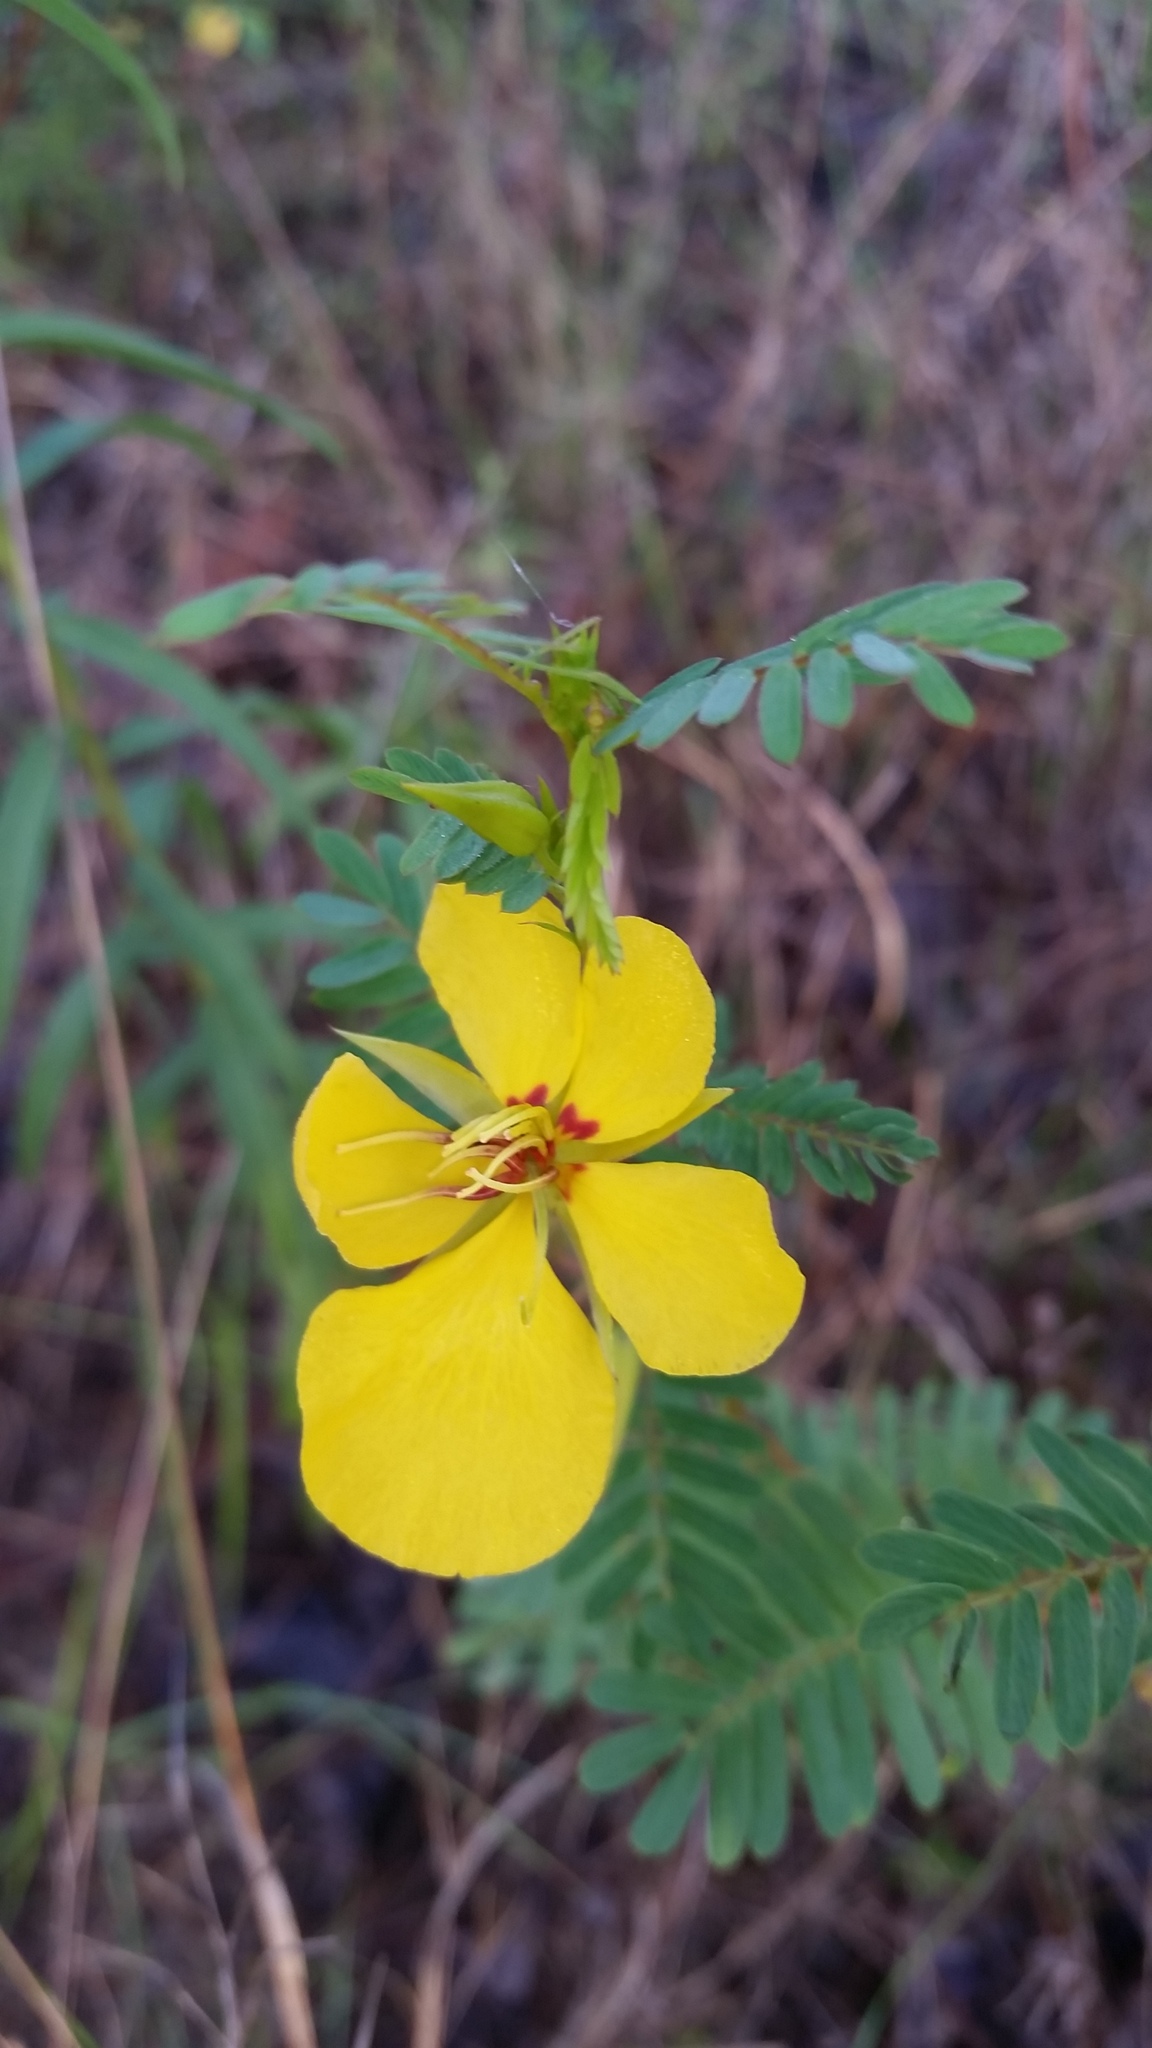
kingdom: Plantae
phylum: Tracheophyta
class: Magnoliopsida
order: Fabales
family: Fabaceae
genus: Chamaecrista
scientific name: Chamaecrista fasciculata
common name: Golden cassia
